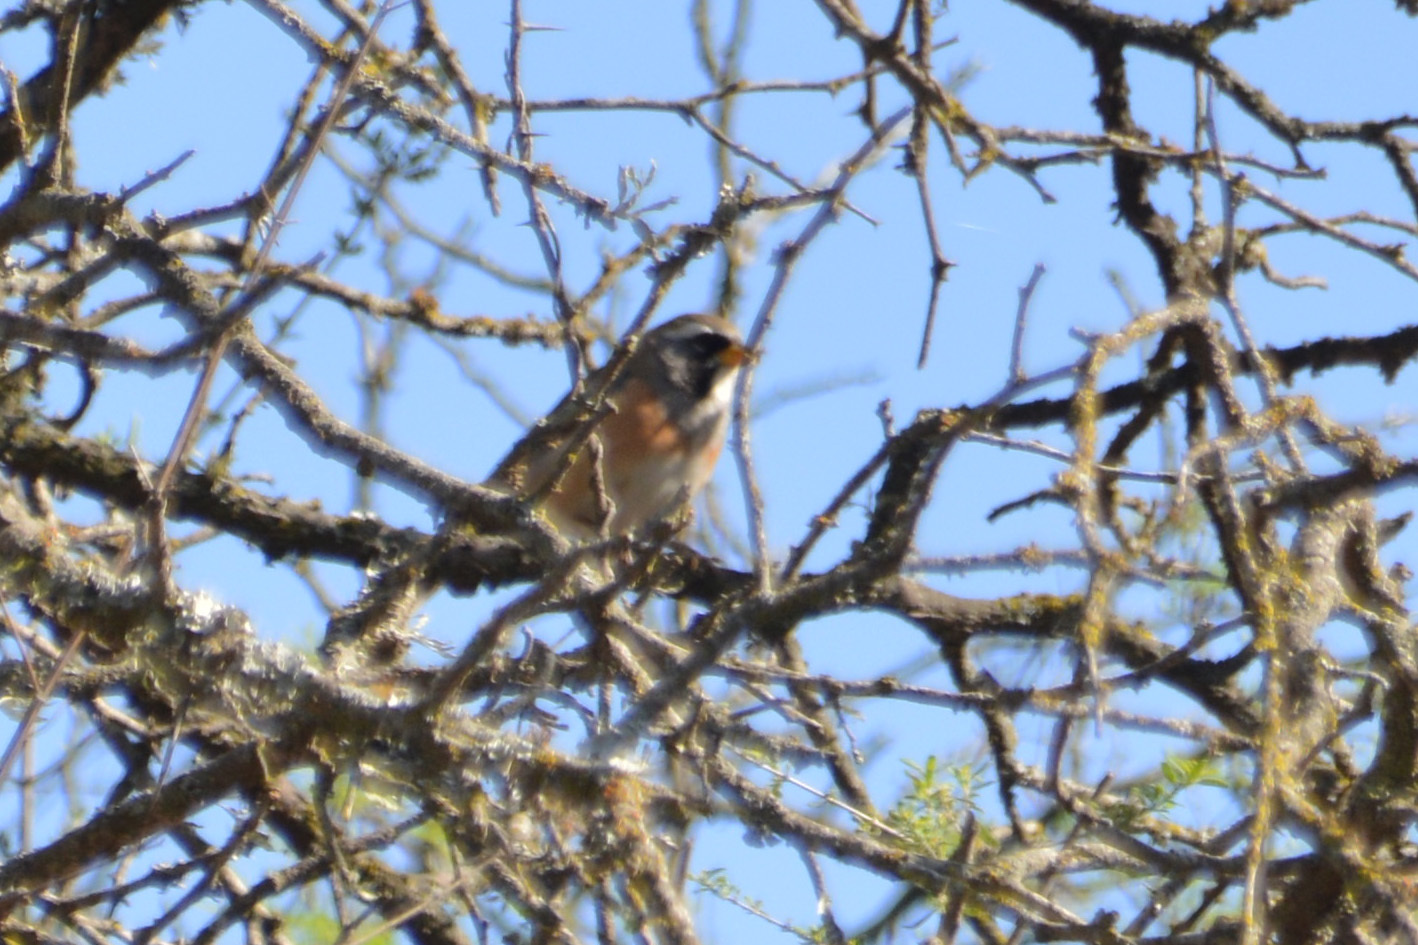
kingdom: Animalia
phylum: Chordata
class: Aves
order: Passeriformes
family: Thraupidae
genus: Saltatricula
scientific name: Saltatricula multicolor
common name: Many-colored chaco finch
